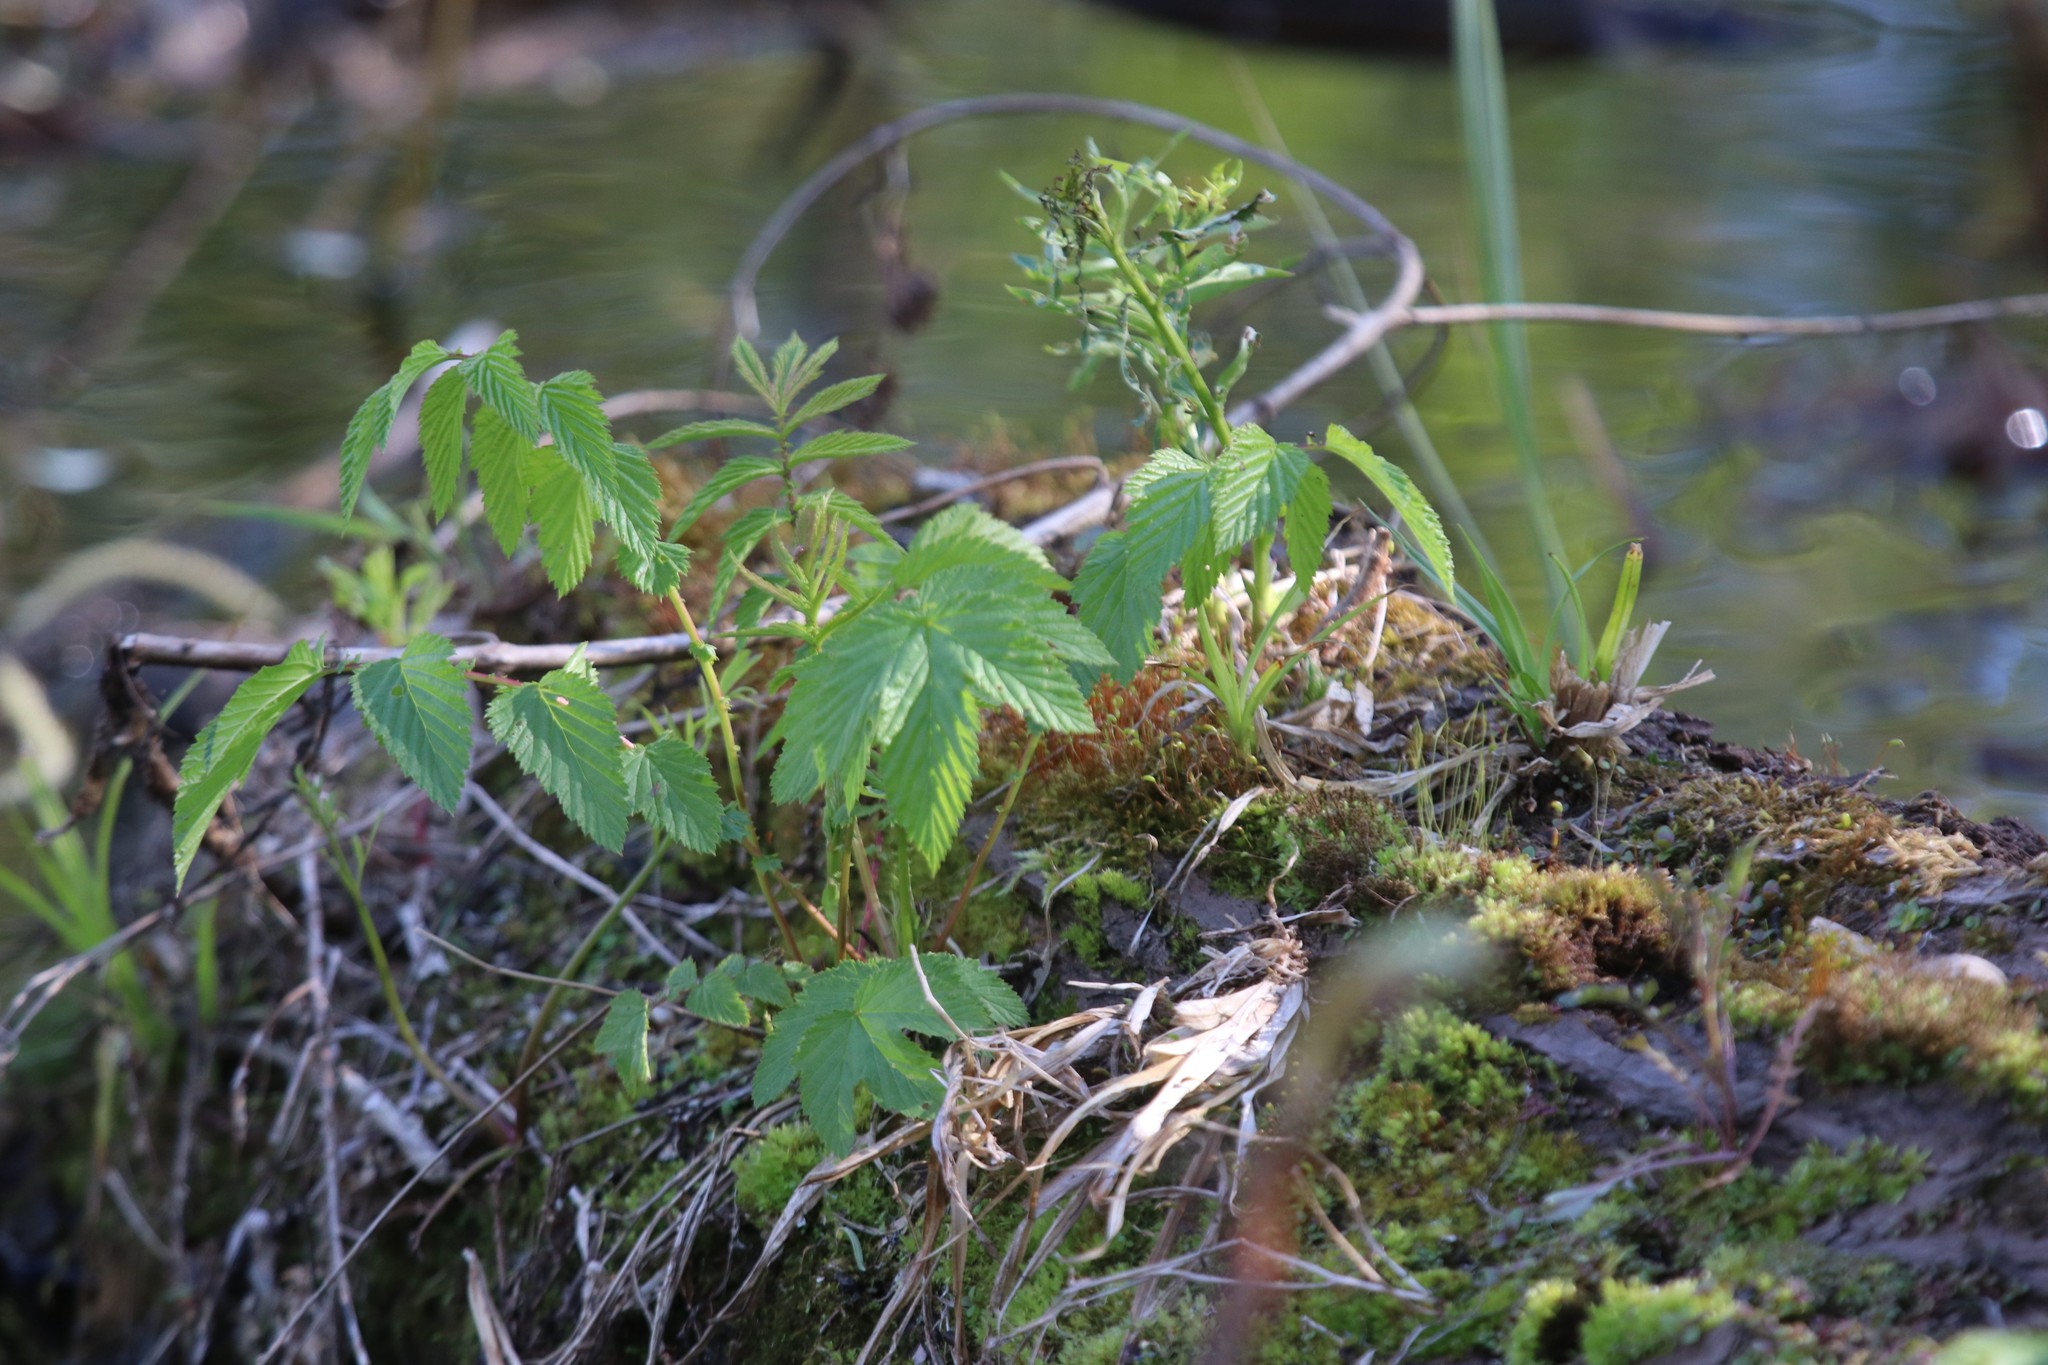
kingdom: Plantae
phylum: Tracheophyta
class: Magnoliopsida
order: Rosales
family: Rosaceae
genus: Filipendula
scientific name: Filipendula ulmaria
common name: Meadowsweet
